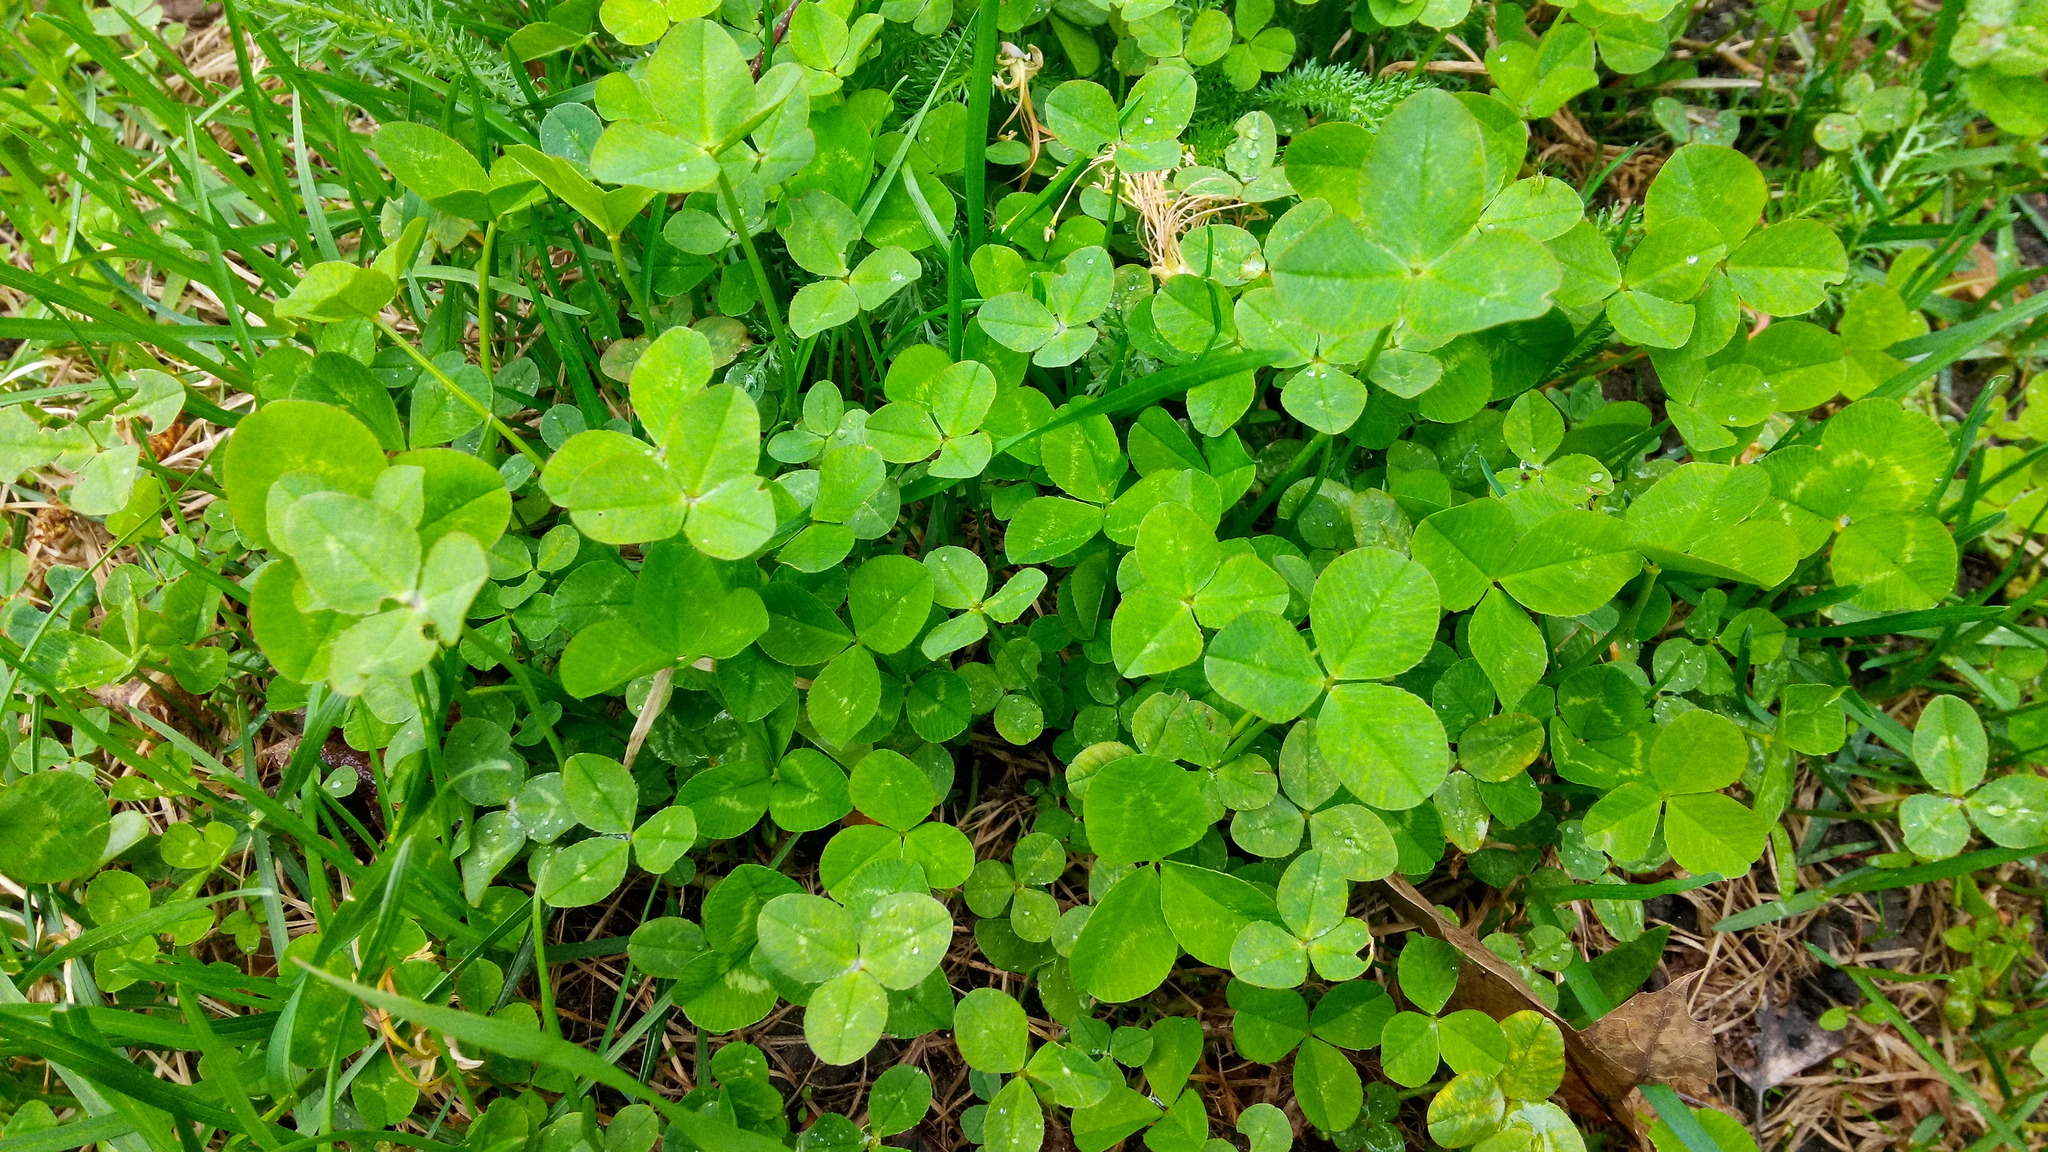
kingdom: Plantae
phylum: Tracheophyta
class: Magnoliopsida
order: Fabales
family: Fabaceae
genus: Trifolium
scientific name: Trifolium repens
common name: White clover
